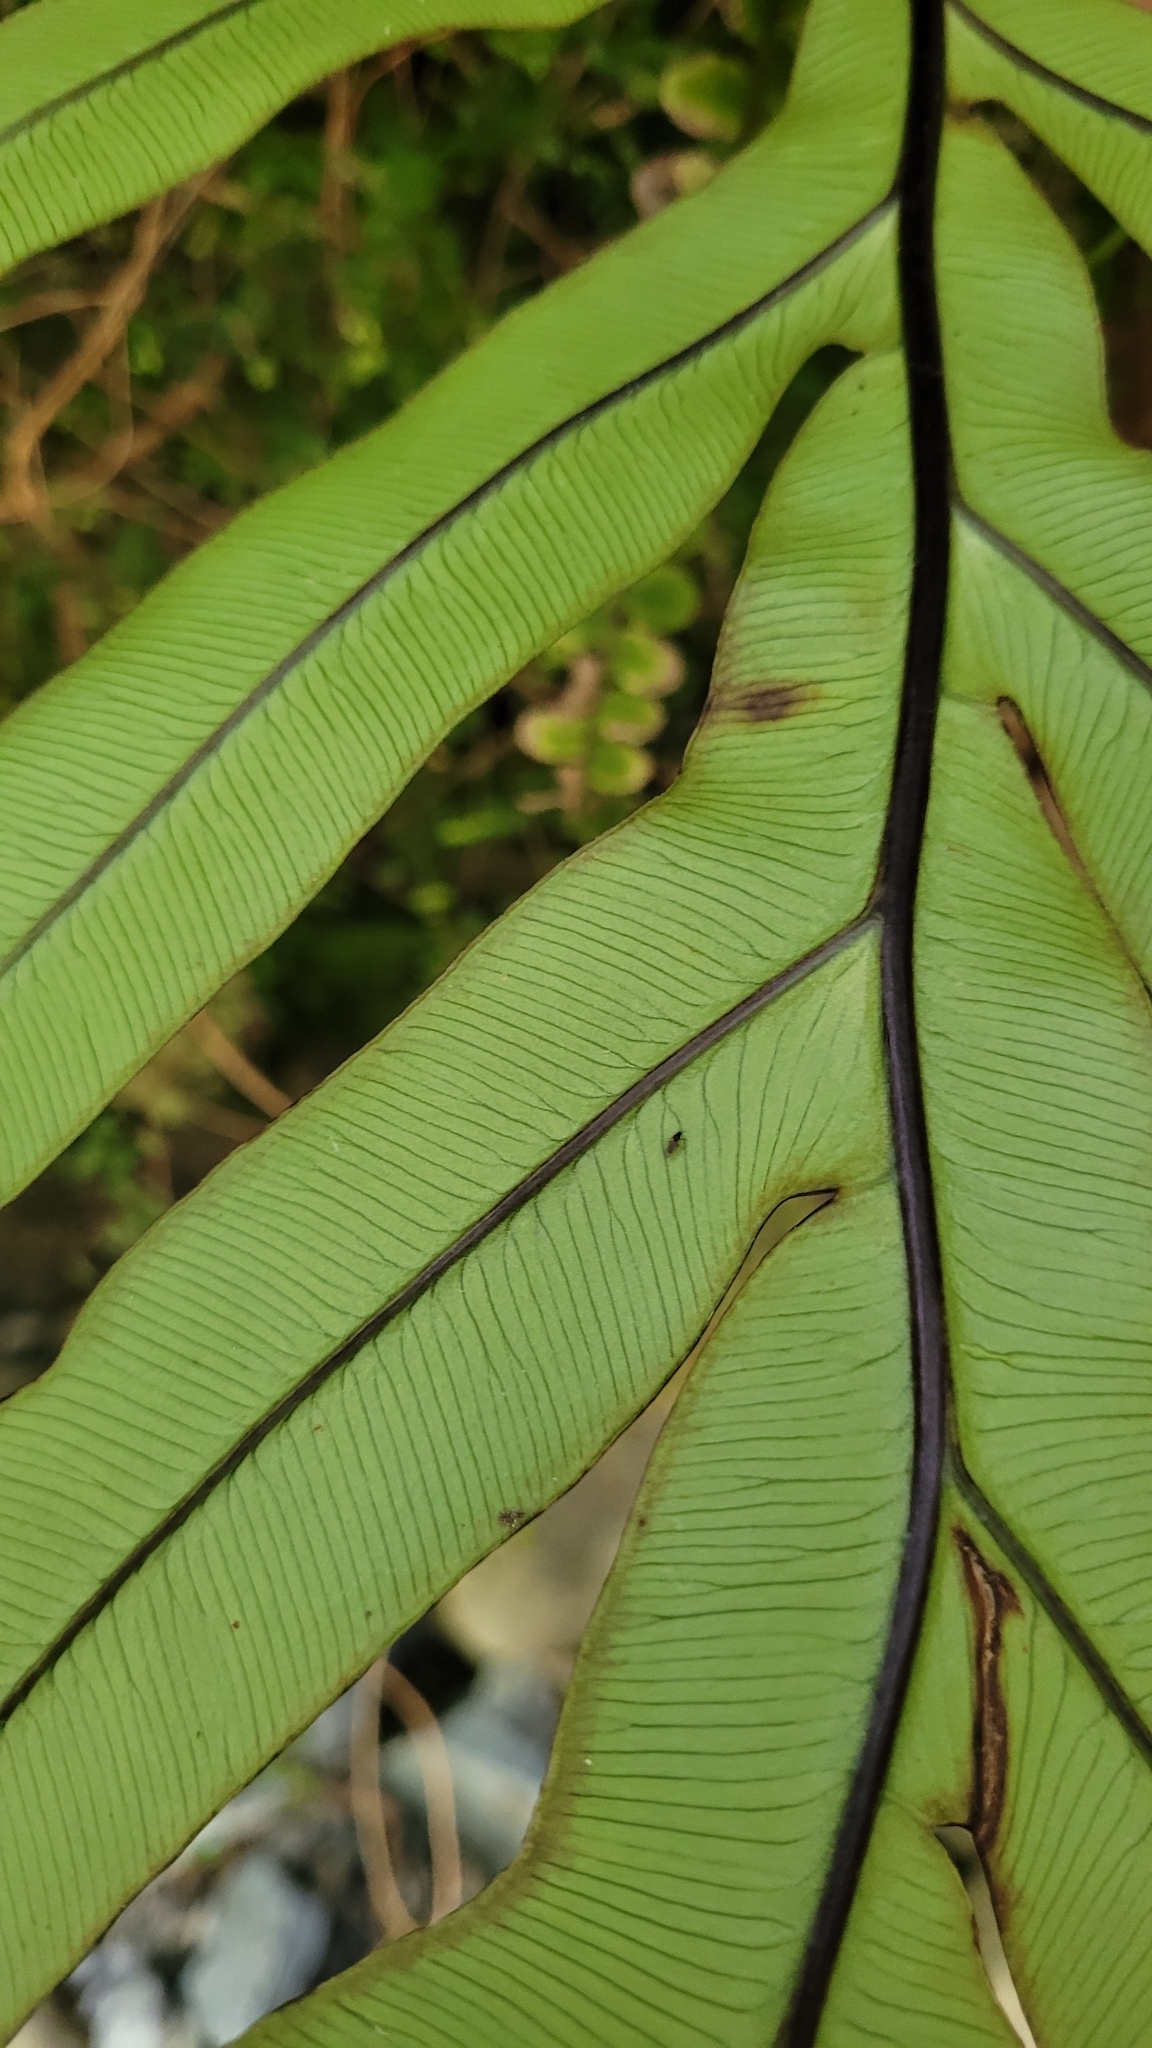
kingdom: Plantae
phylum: Tracheophyta
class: Polypodiopsida
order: Polypodiales
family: Blechnaceae
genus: Austroblechnum
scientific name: Austroblechnum colensoi
